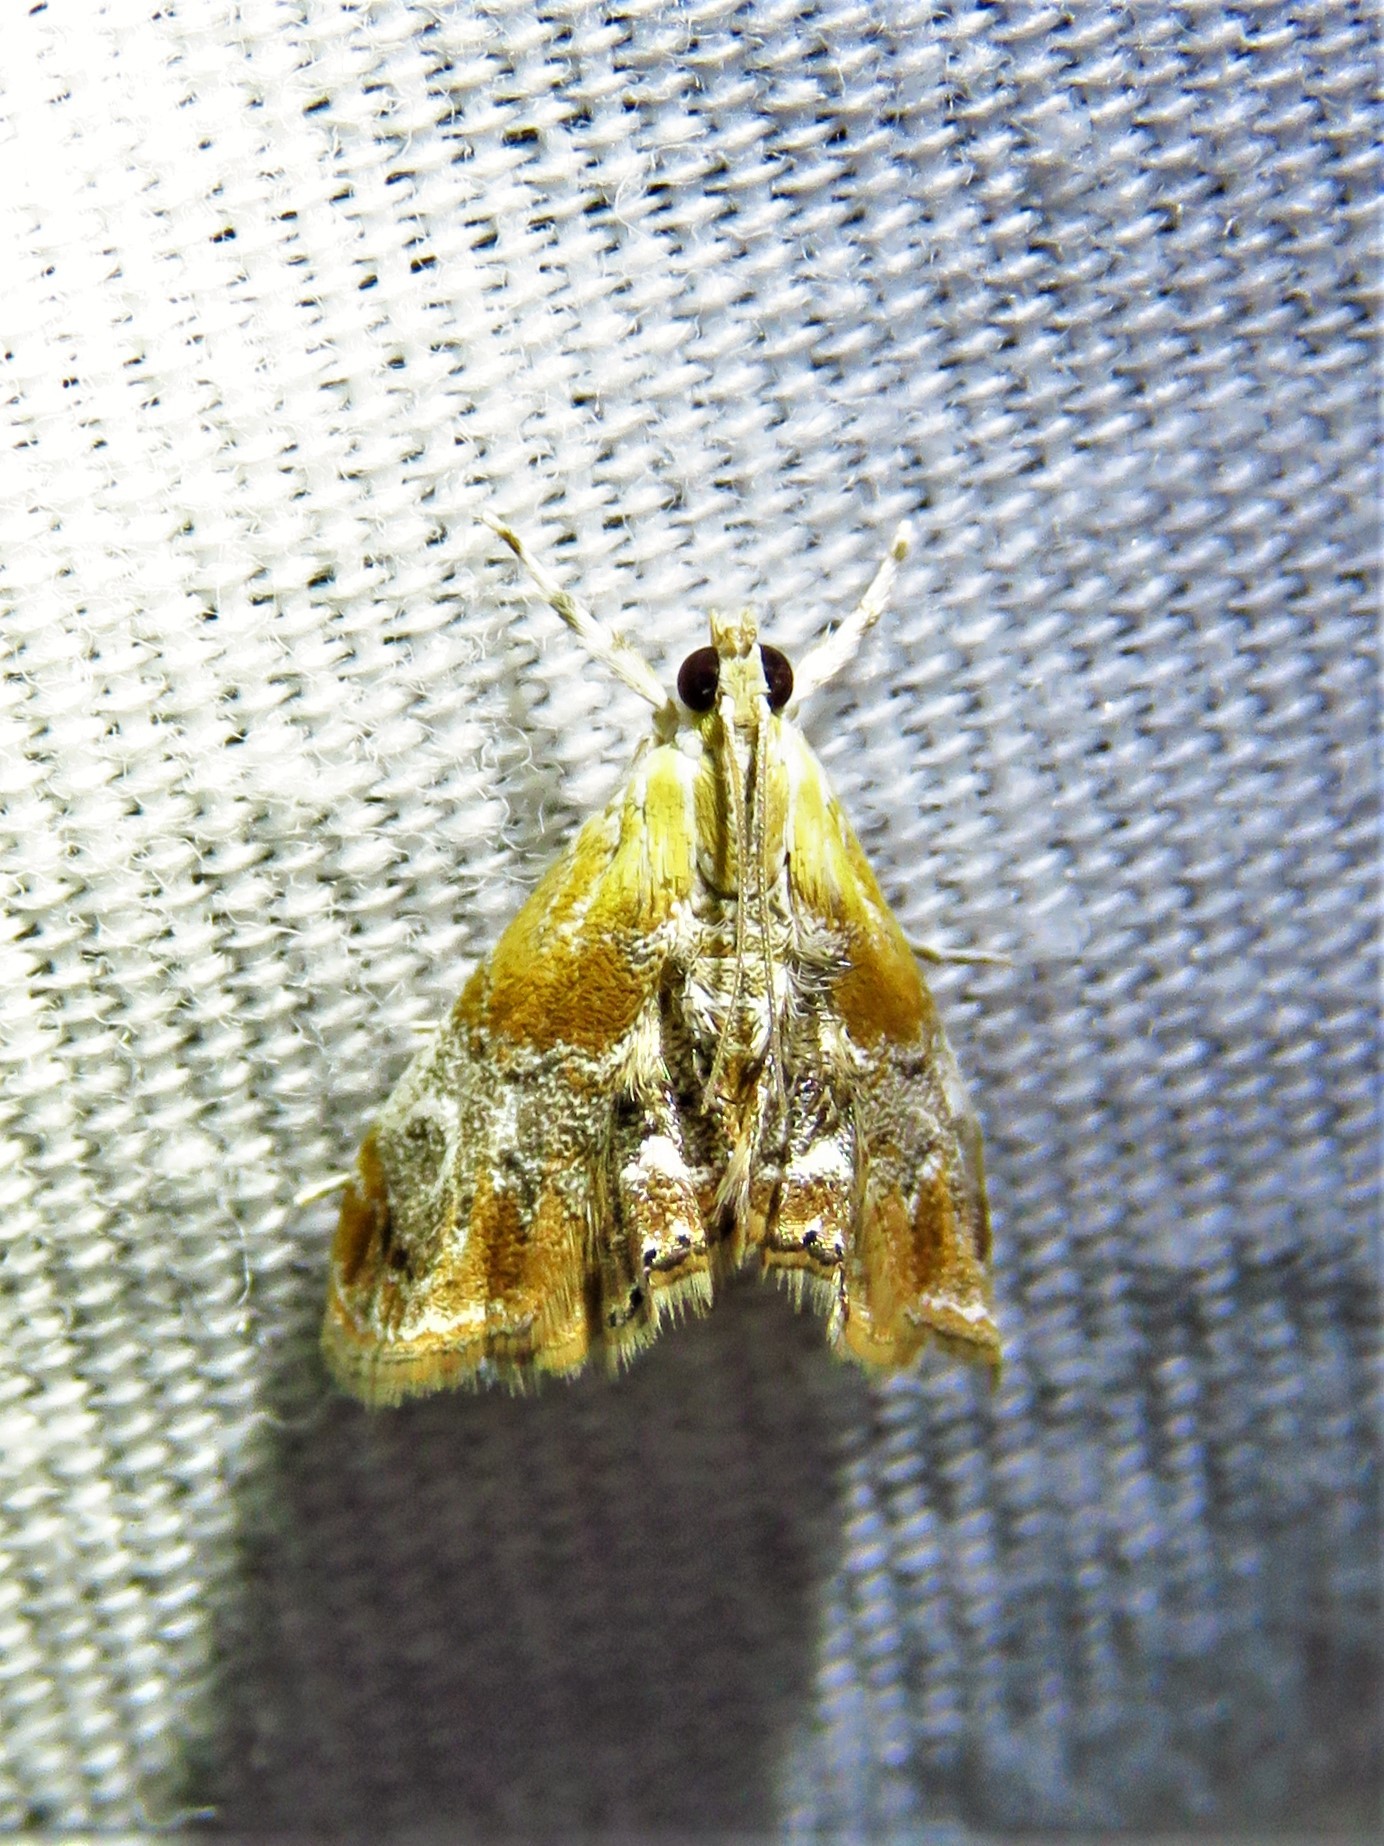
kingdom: Animalia
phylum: Arthropoda
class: Insecta
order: Lepidoptera
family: Crambidae
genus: Dicymolomia
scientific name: Dicymolomia julianalis
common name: Julia's dicymolomia moth
